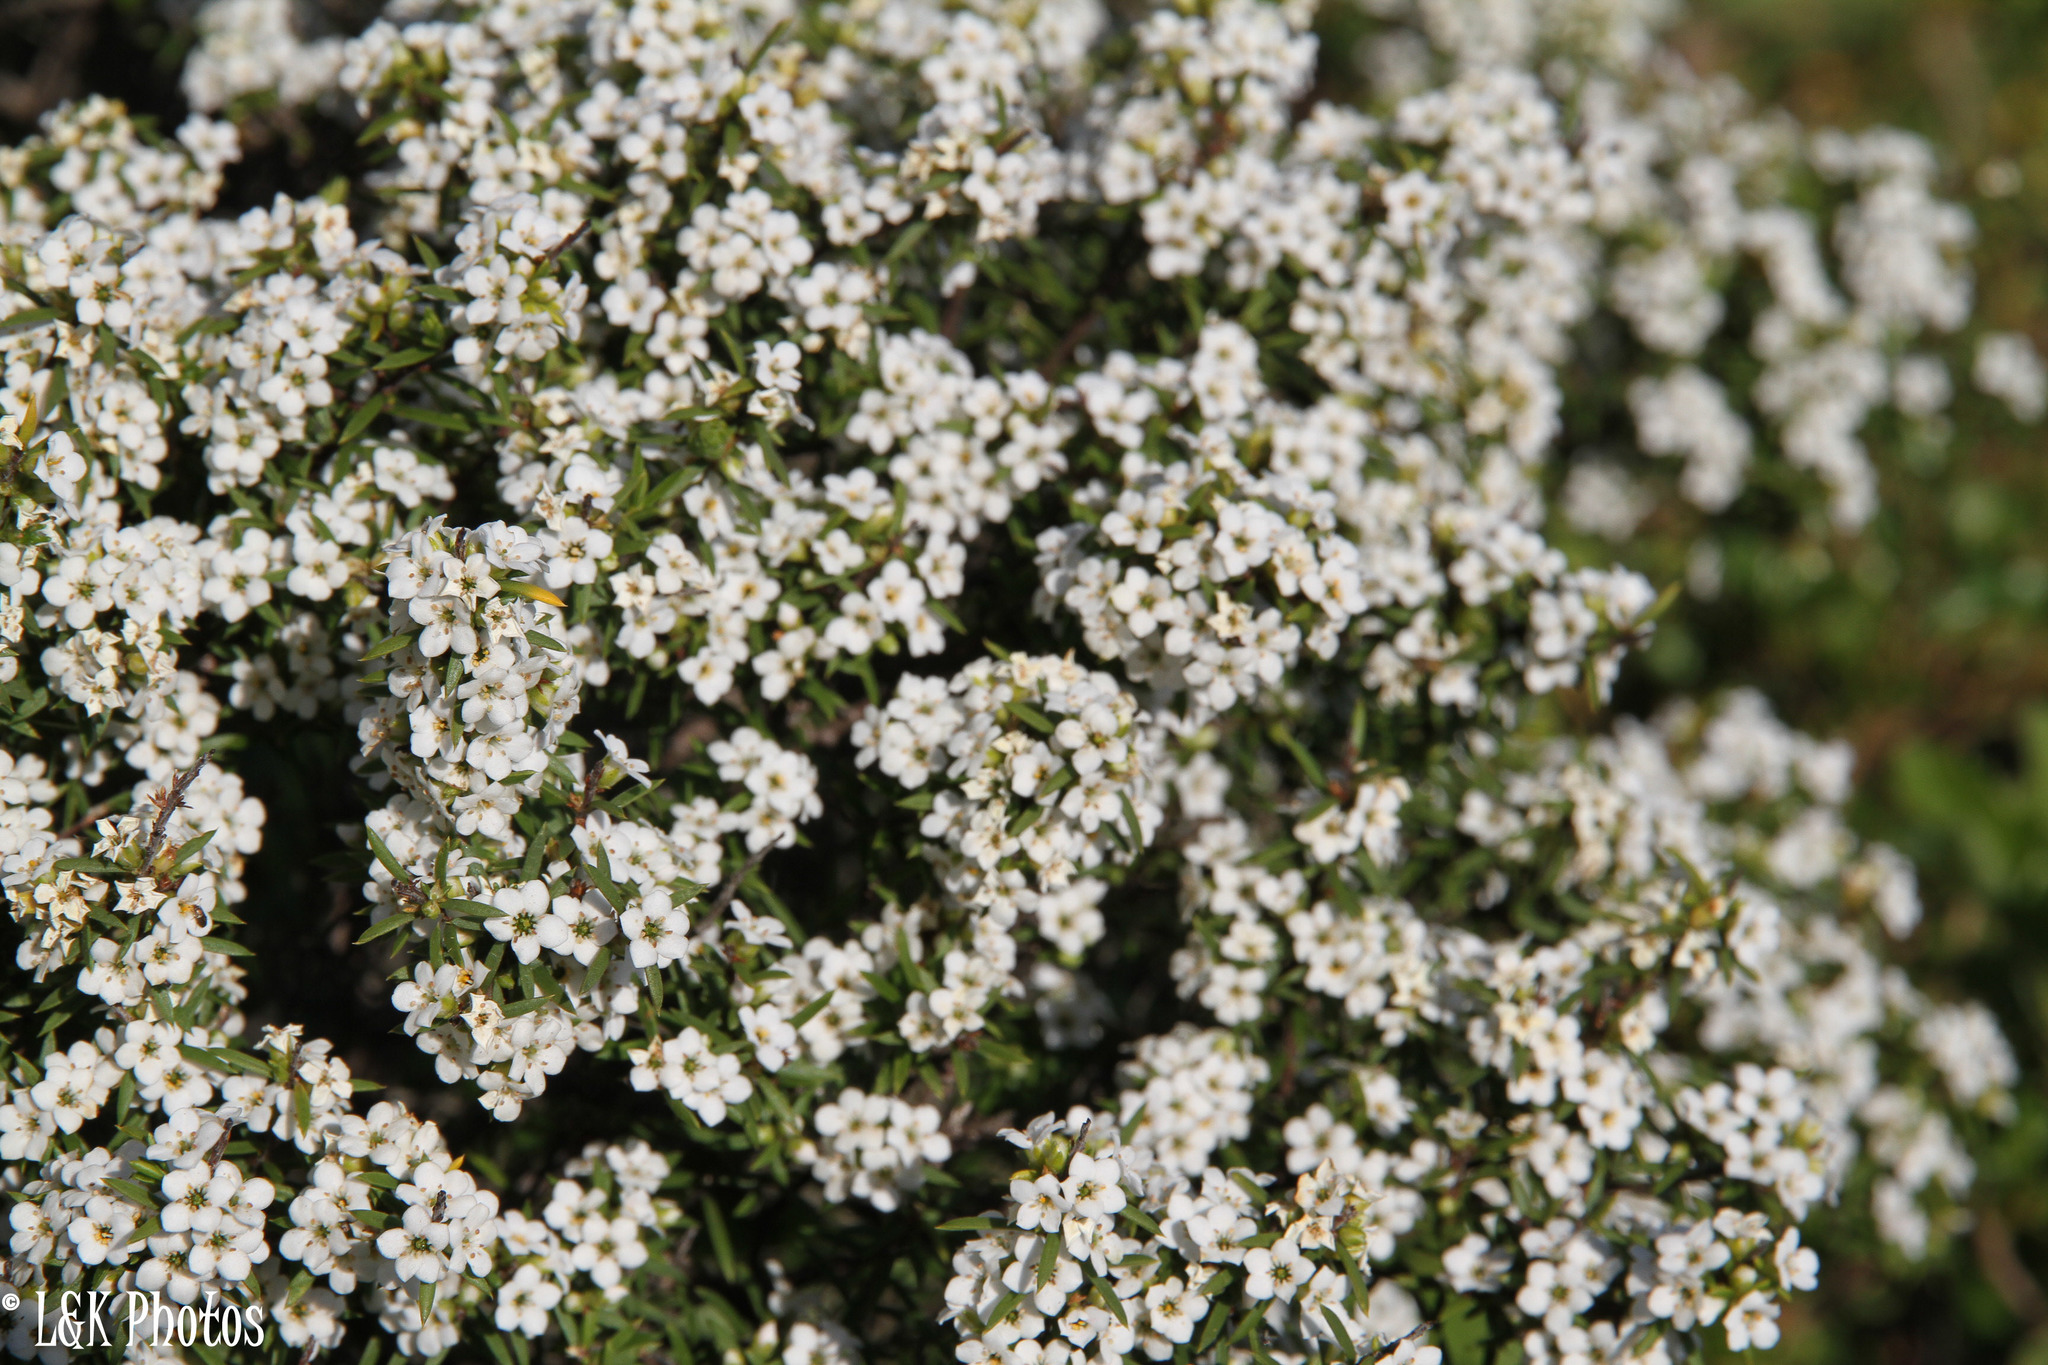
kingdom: Plantae
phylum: Tracheophyta
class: Magnoliopsida
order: Sapindales
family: Rutaceae
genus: Coleonema
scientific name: Coleonema album
